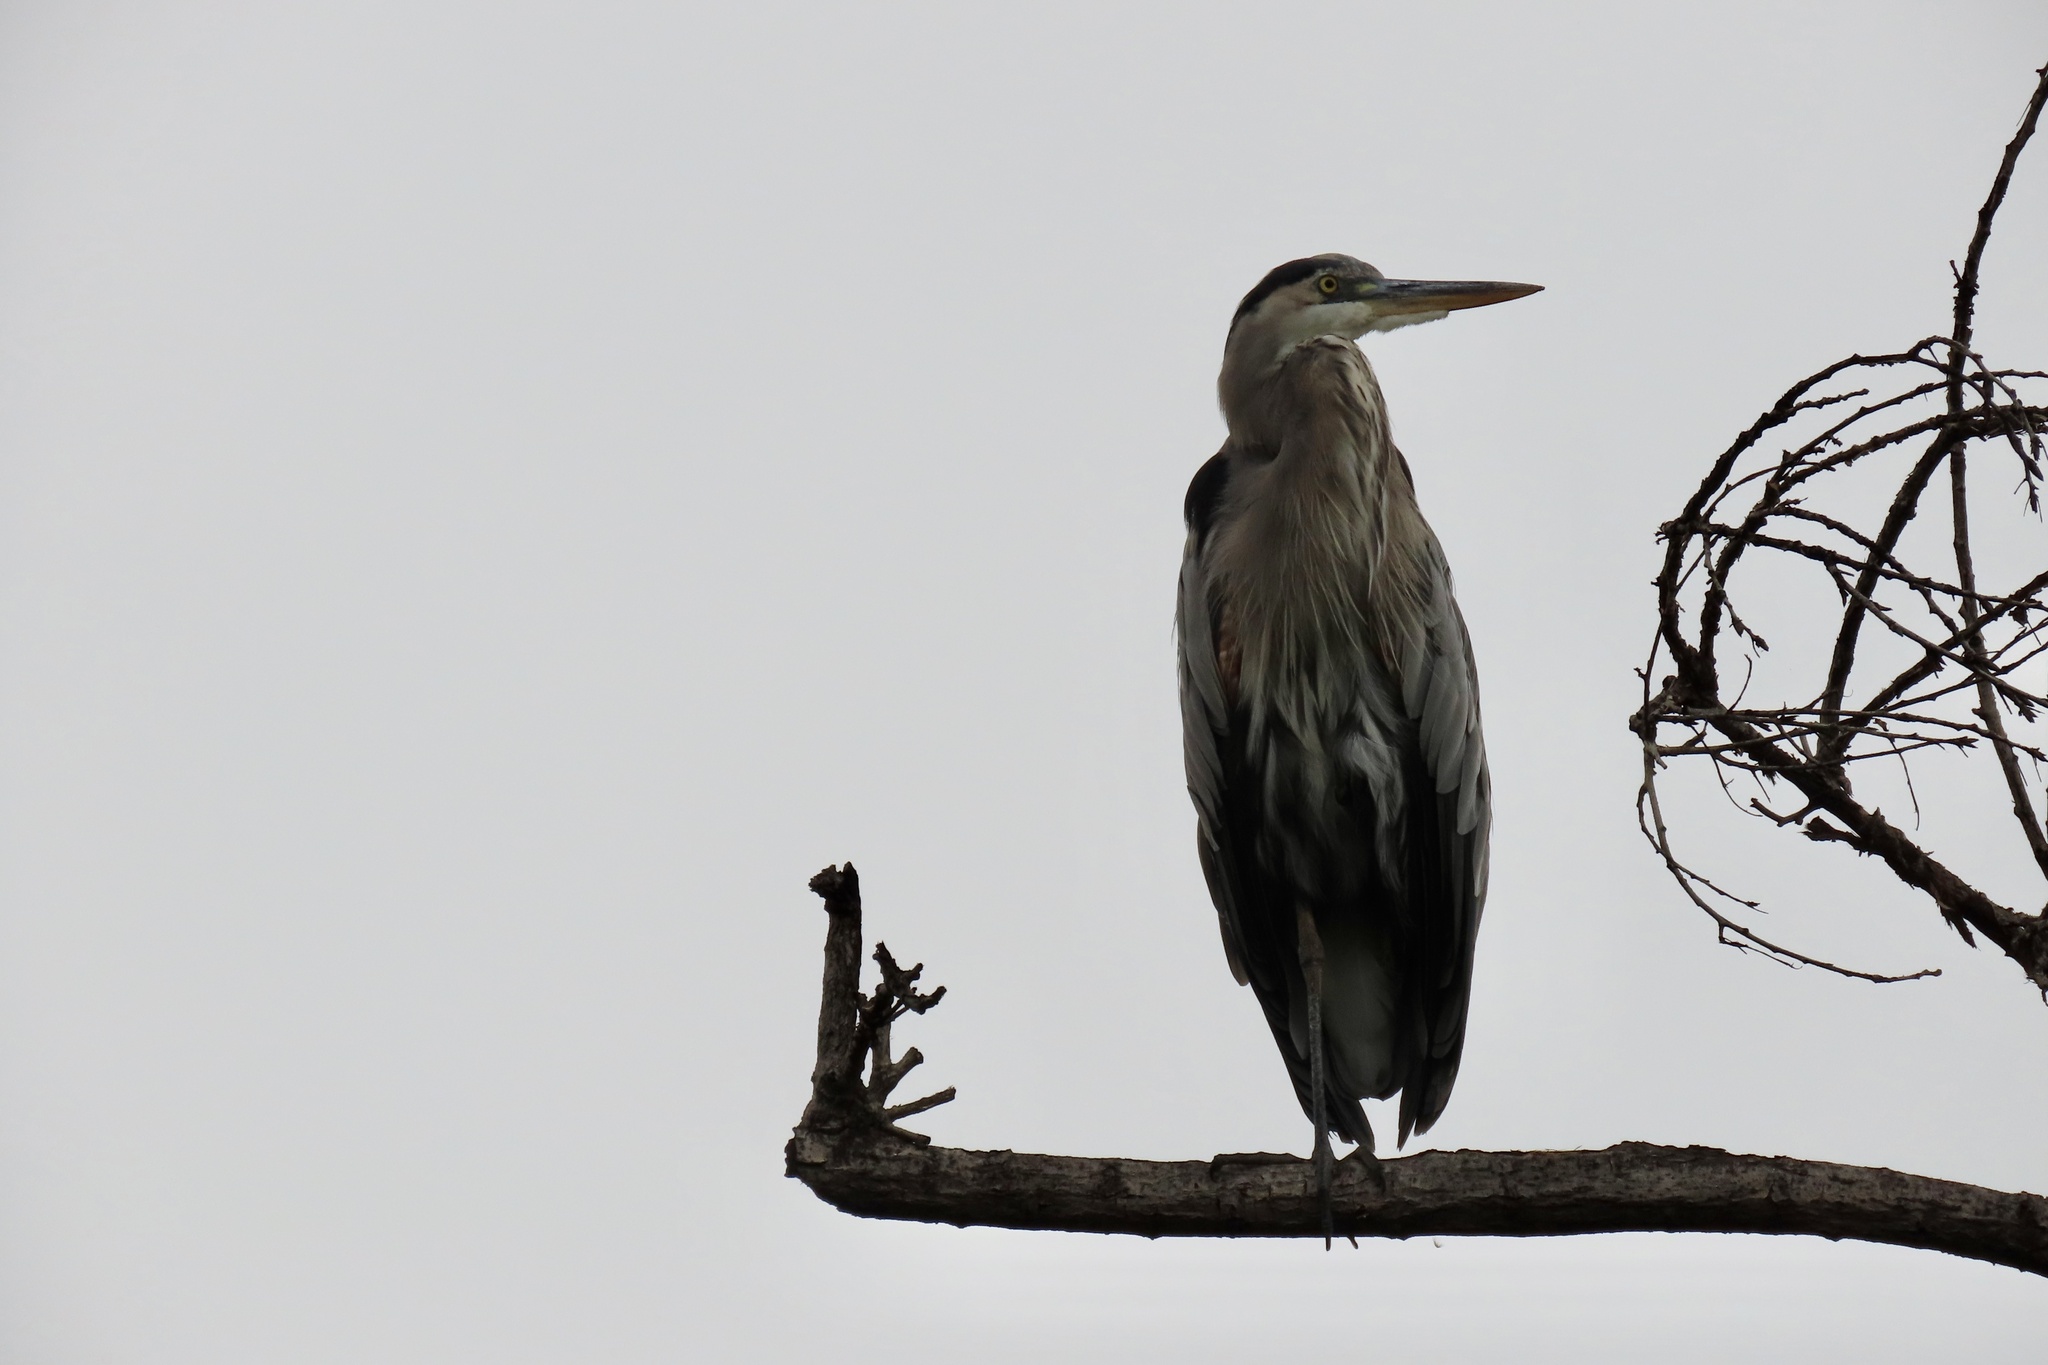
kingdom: Animalia
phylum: Chordata
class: Aves
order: Pelecaniformes
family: Ardeidae
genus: Ardea
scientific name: Ardea herodias
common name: Great blue heron
